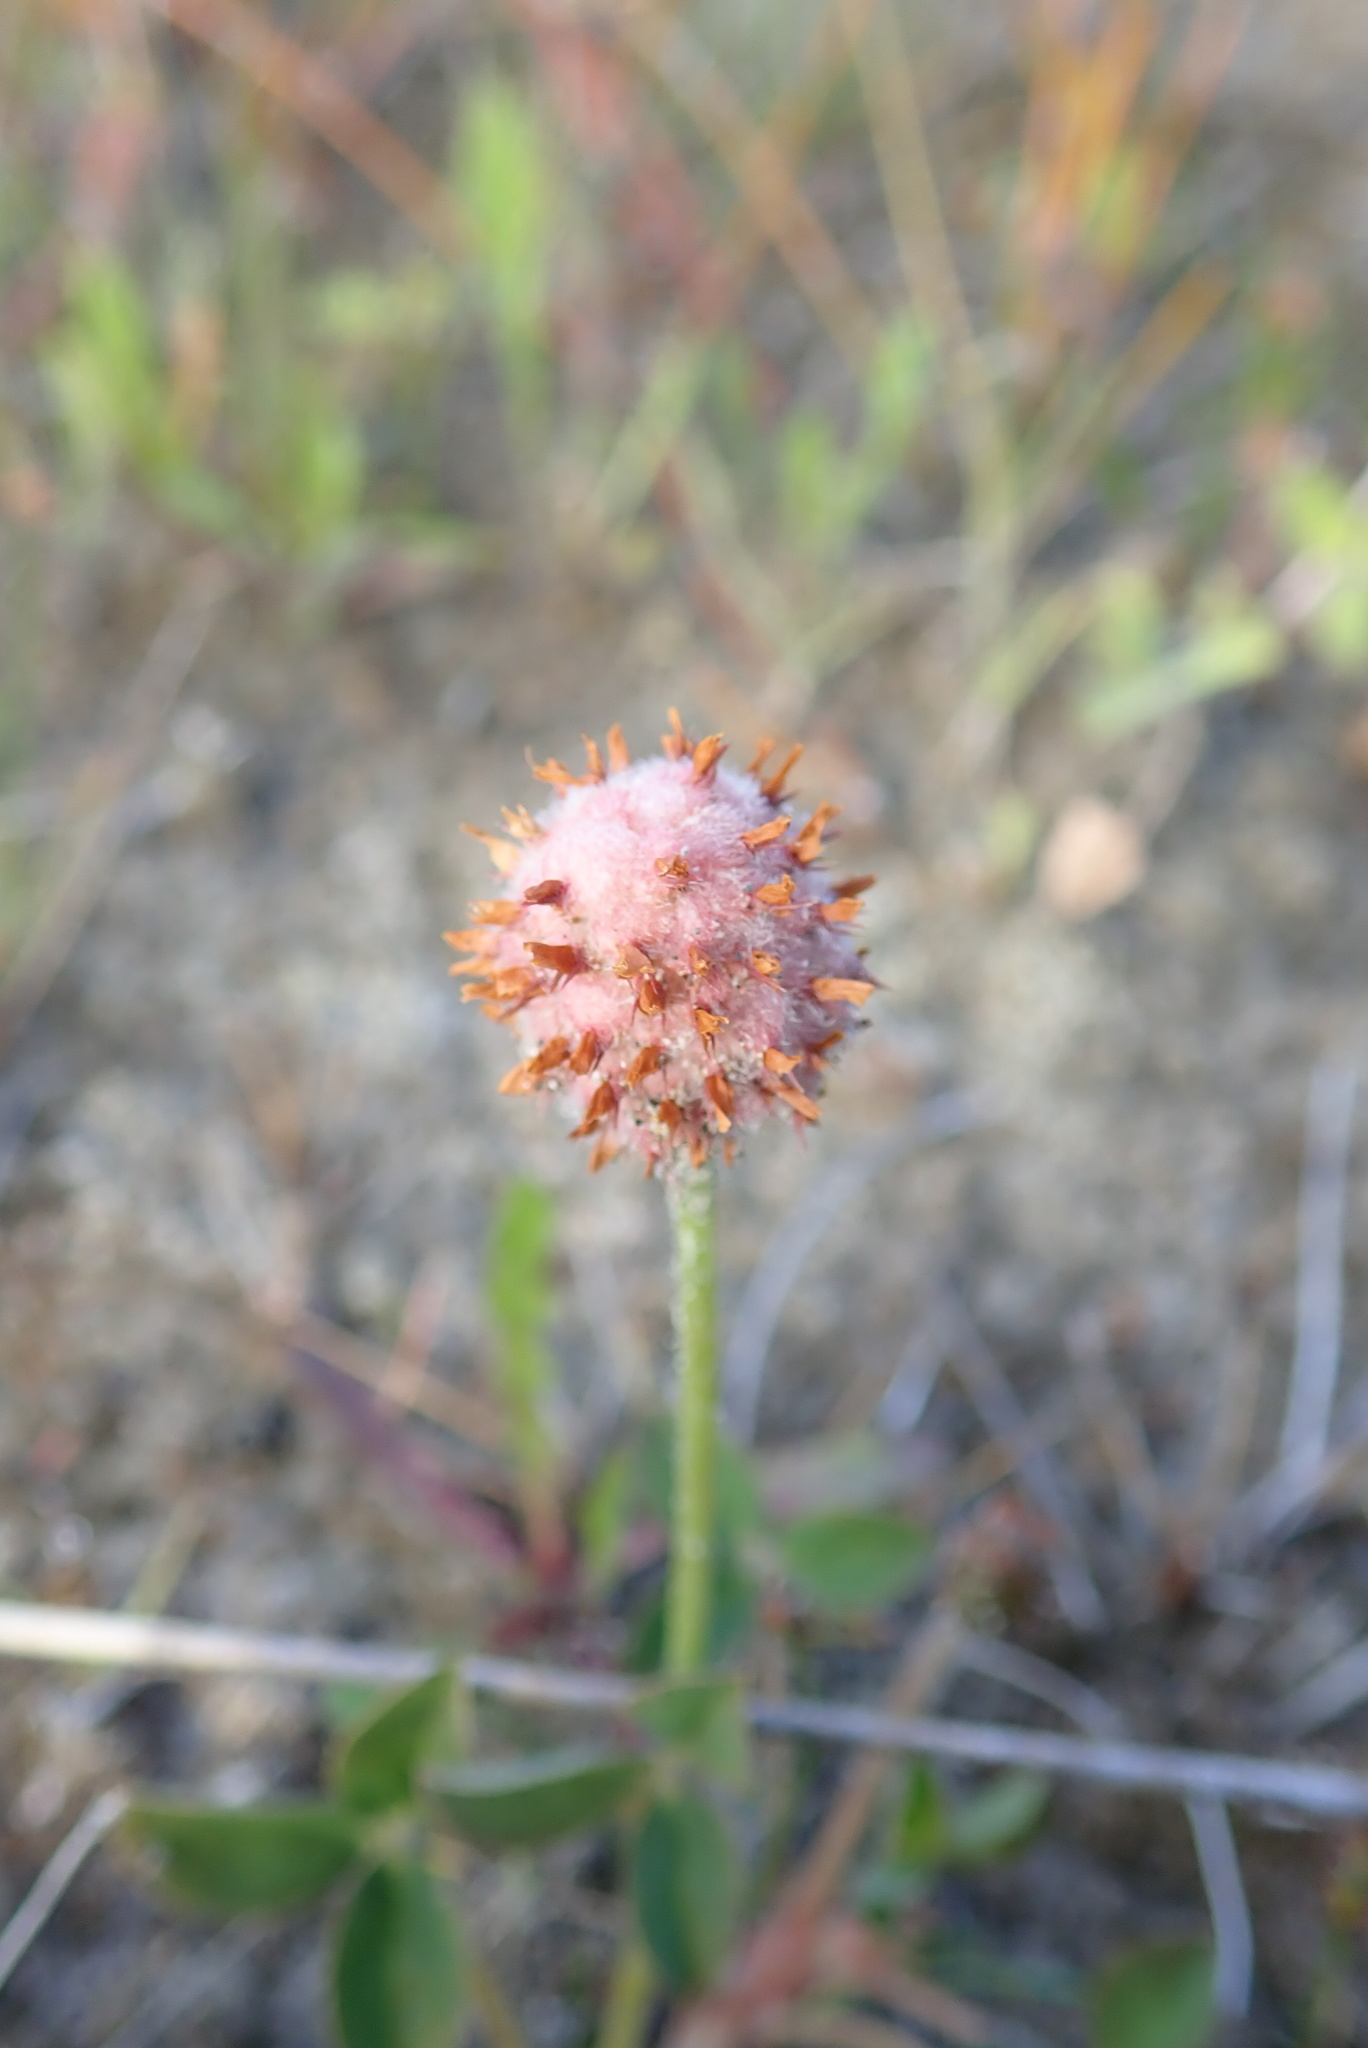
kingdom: Plantae
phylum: Tracheophyta
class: Magnoliopsida
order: Fabales
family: Fabaceae
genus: Trifolium
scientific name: Trifolium fragiferum
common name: Strawberry clover
